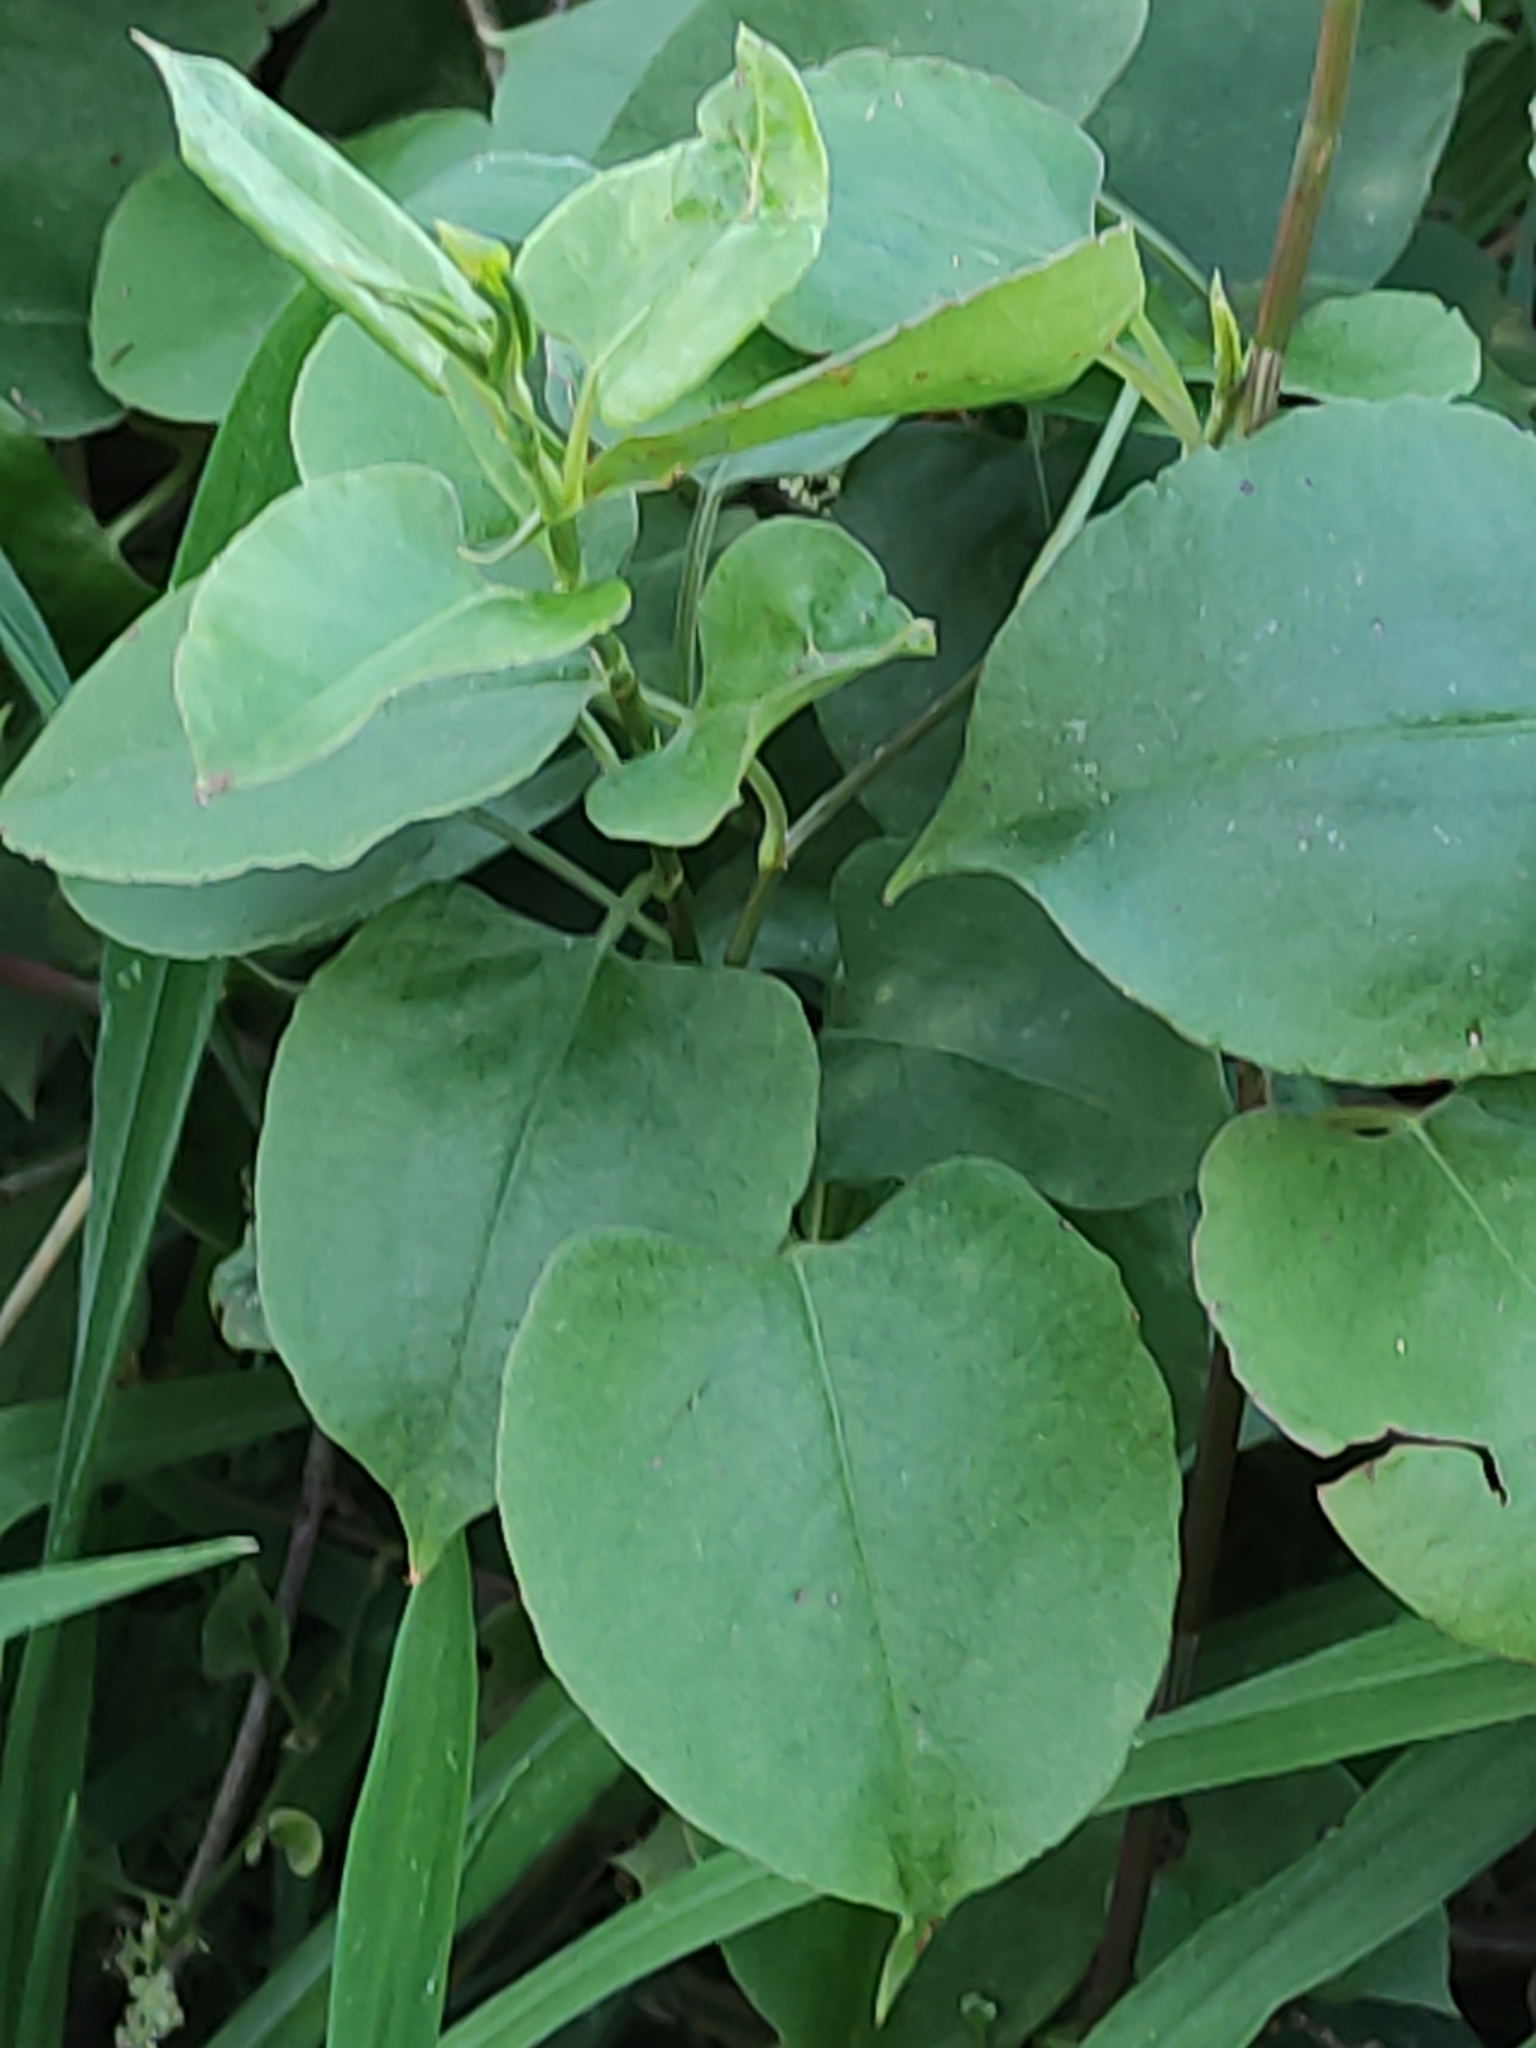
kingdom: Plantae
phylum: Tracheophyta
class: Magnoliopsida
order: Caryophyllales
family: Polygonaceae
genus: Muehlenbeckia
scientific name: Muehlenbeckia australis
